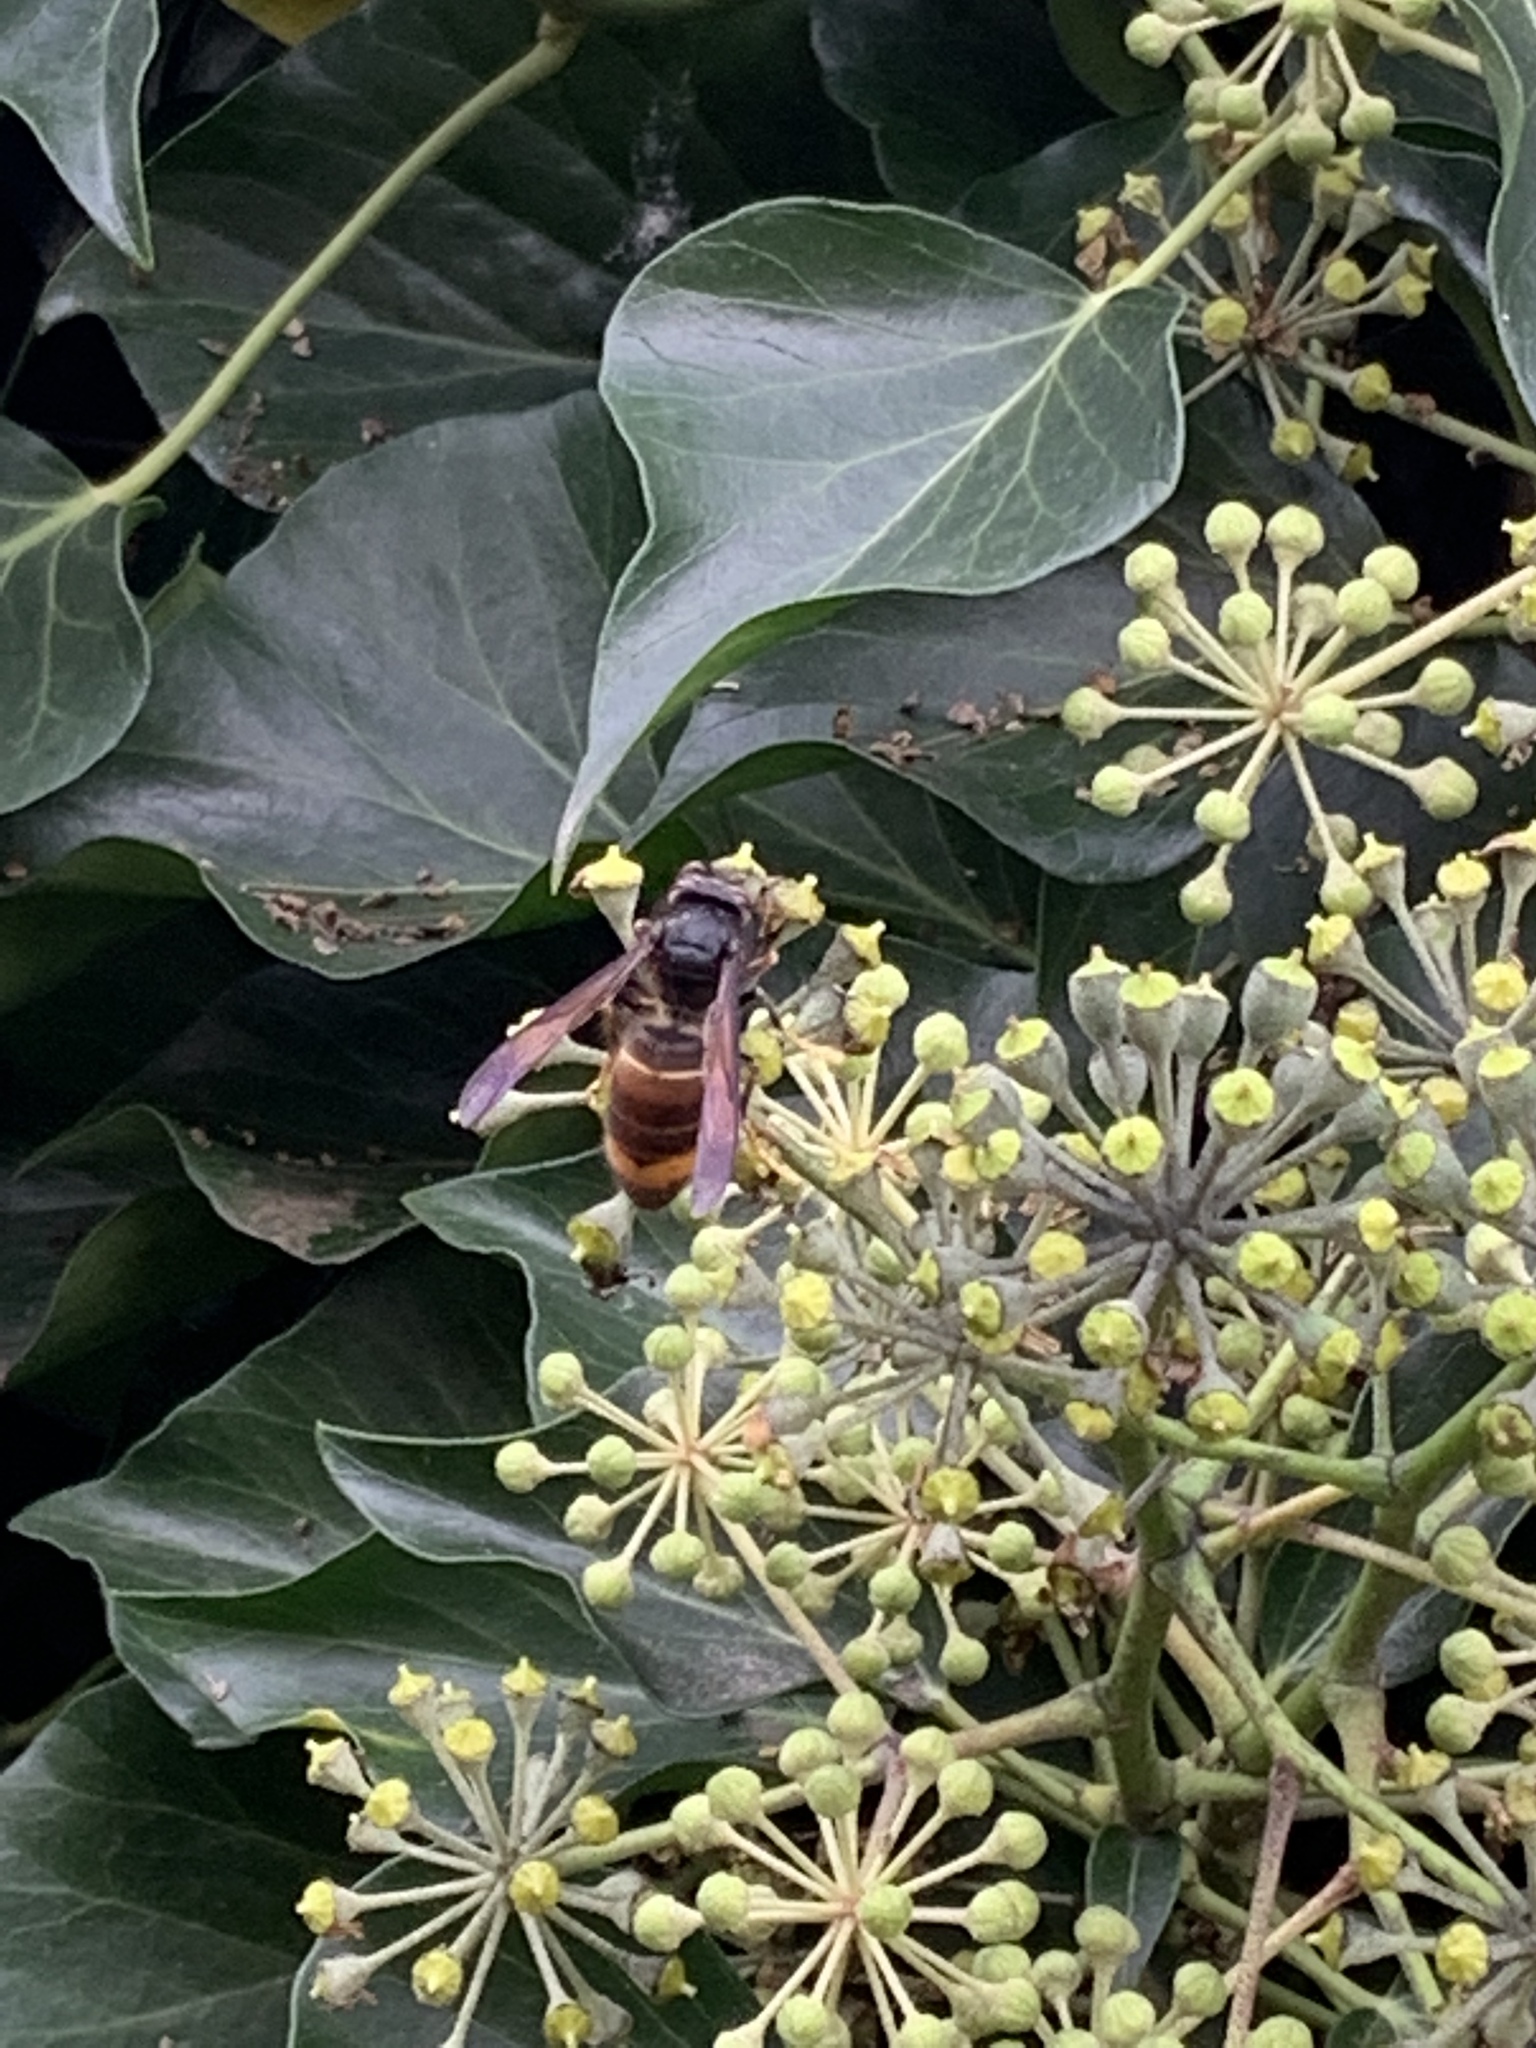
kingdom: Animalia
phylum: Arthropoda
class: Insecta
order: Hymenoptera
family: Vespidae
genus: Vespa
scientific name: Vespa velutina
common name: Asian hornet
